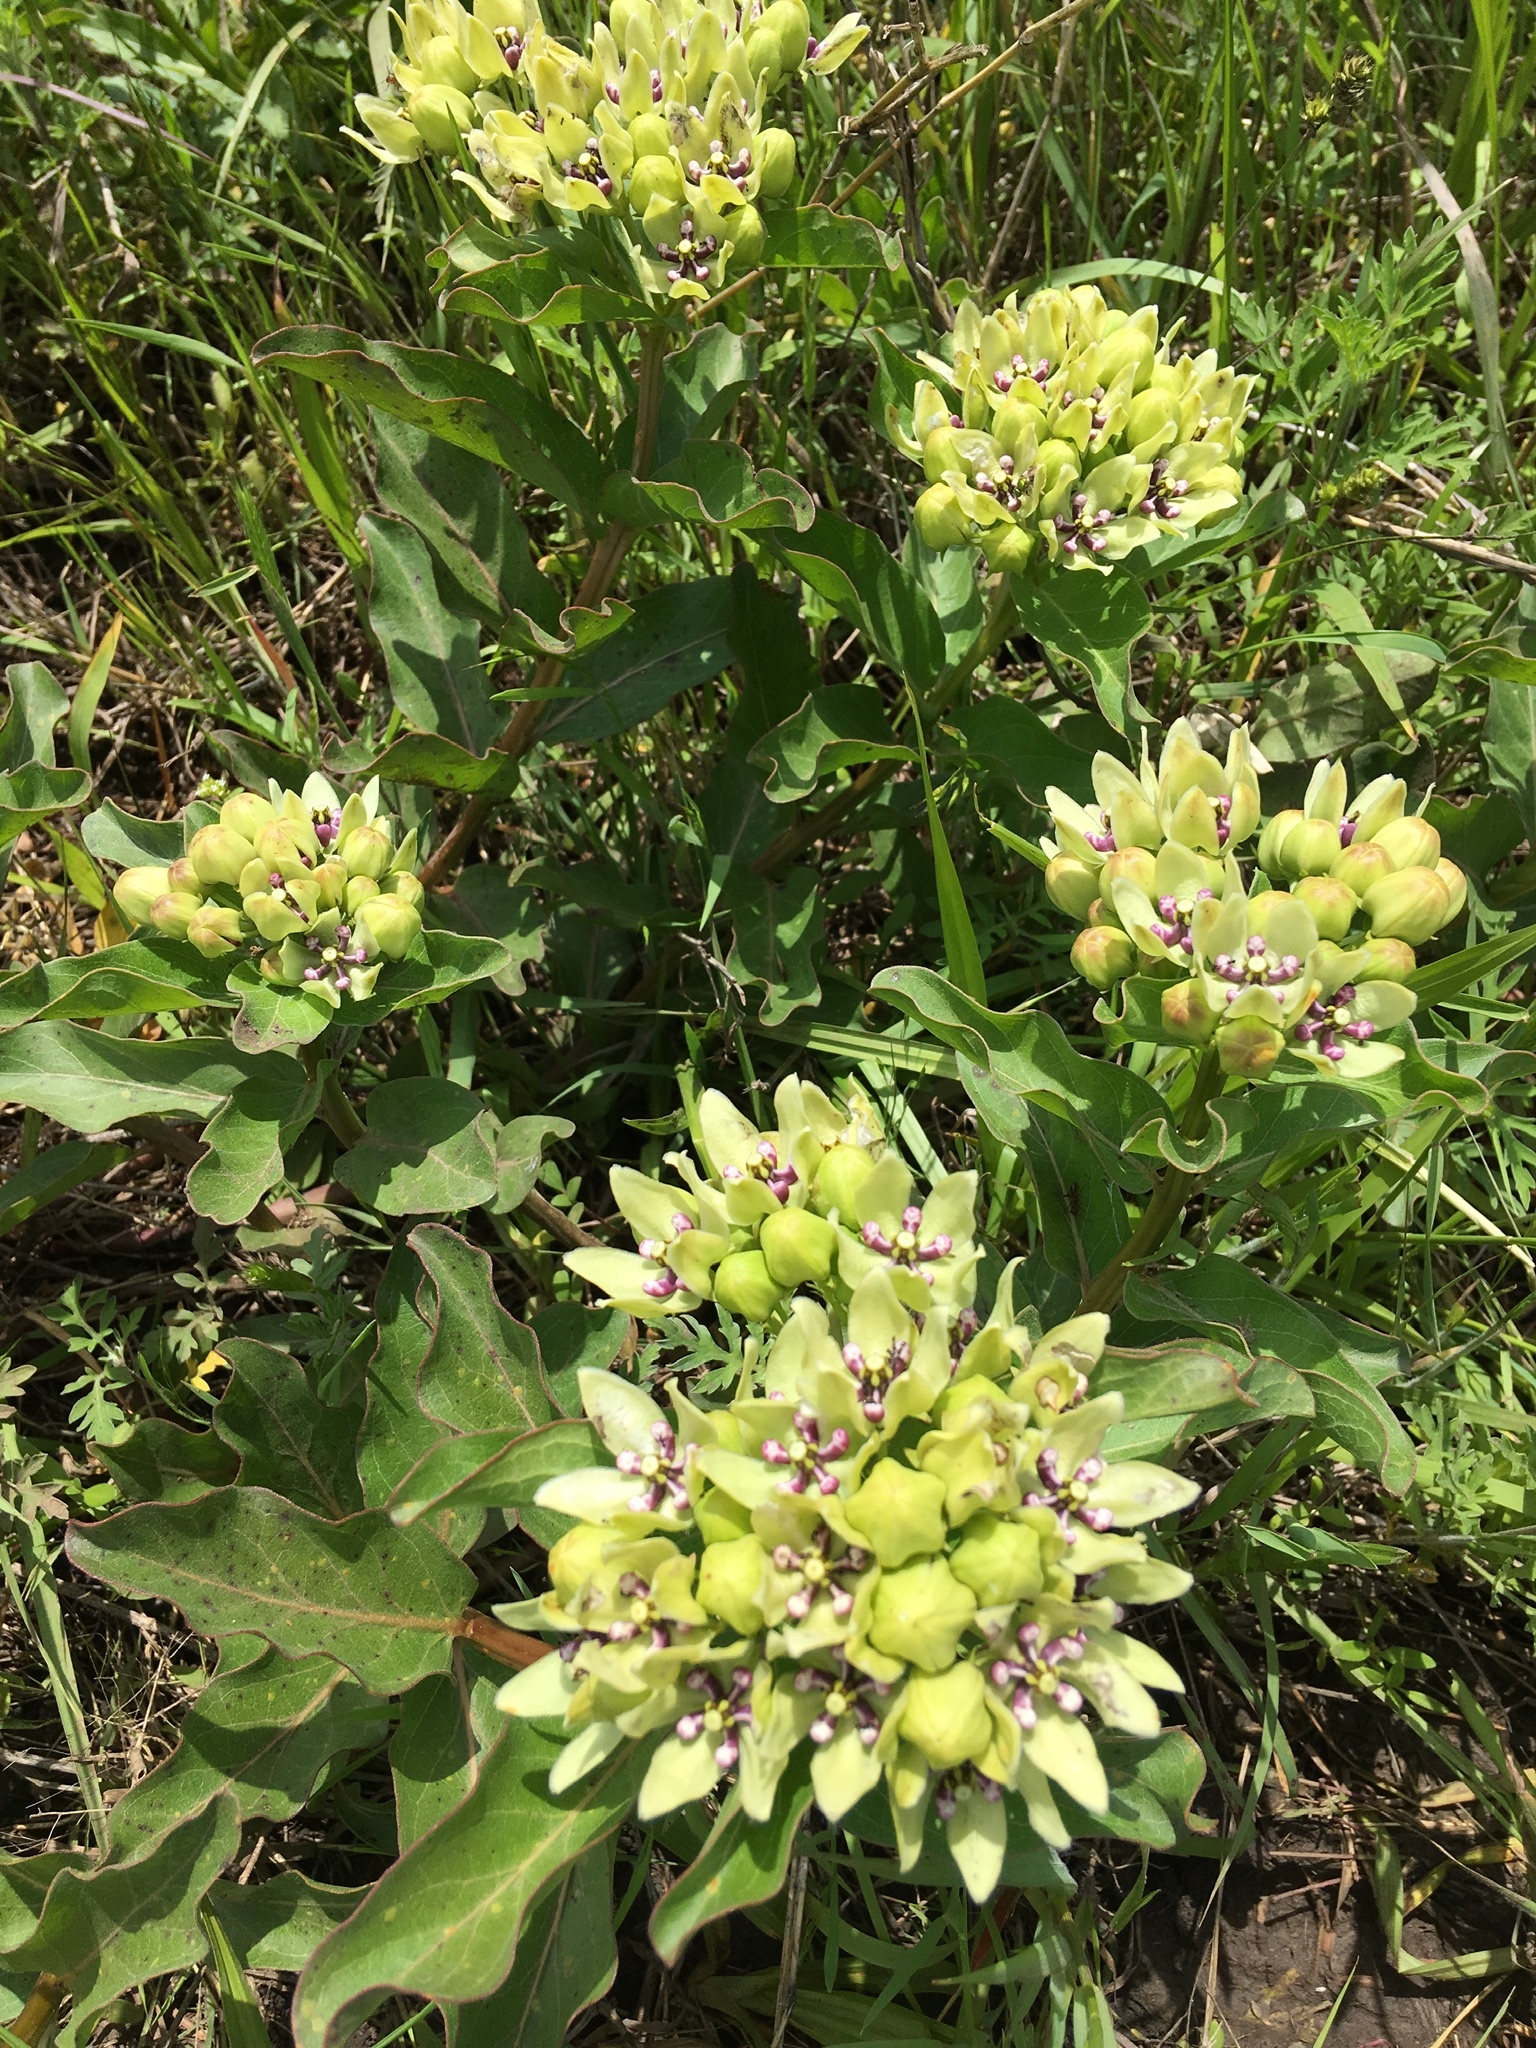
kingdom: Plantae
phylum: Tracheophyta
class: Magnoliopsida
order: Gentianales
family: Apocynaceae
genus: Asclepias
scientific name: Asclepias viridis
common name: Antelope-horns
